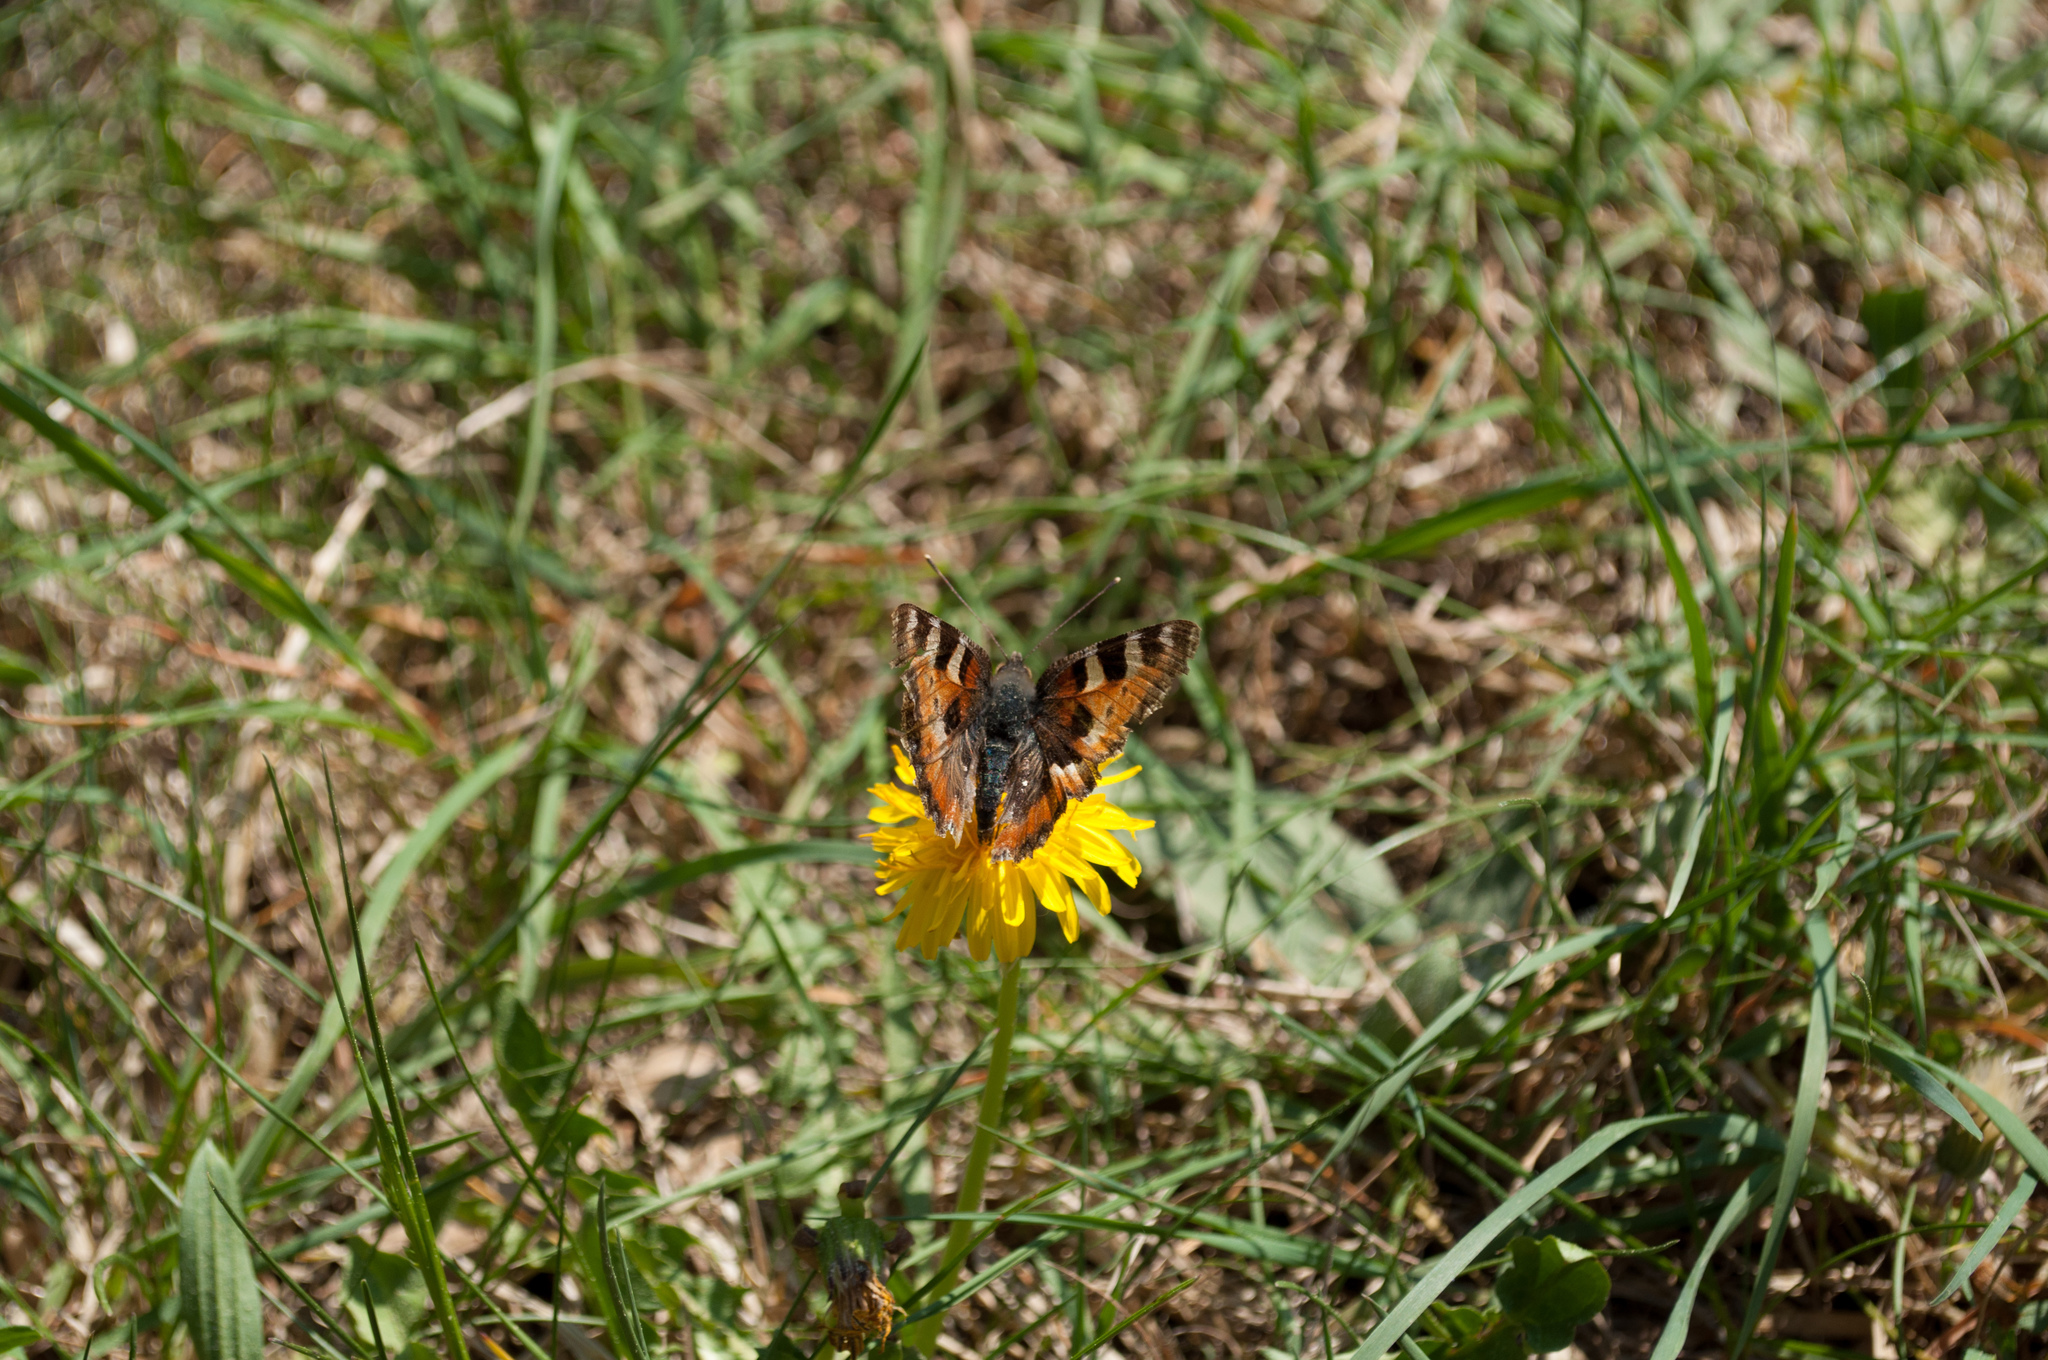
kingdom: Animalia
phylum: Arthropoda
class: Insecta
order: Lepidoptera
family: Nymphalidae
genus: Aglais
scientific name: Aglais urticae
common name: Small tortoiseshell
